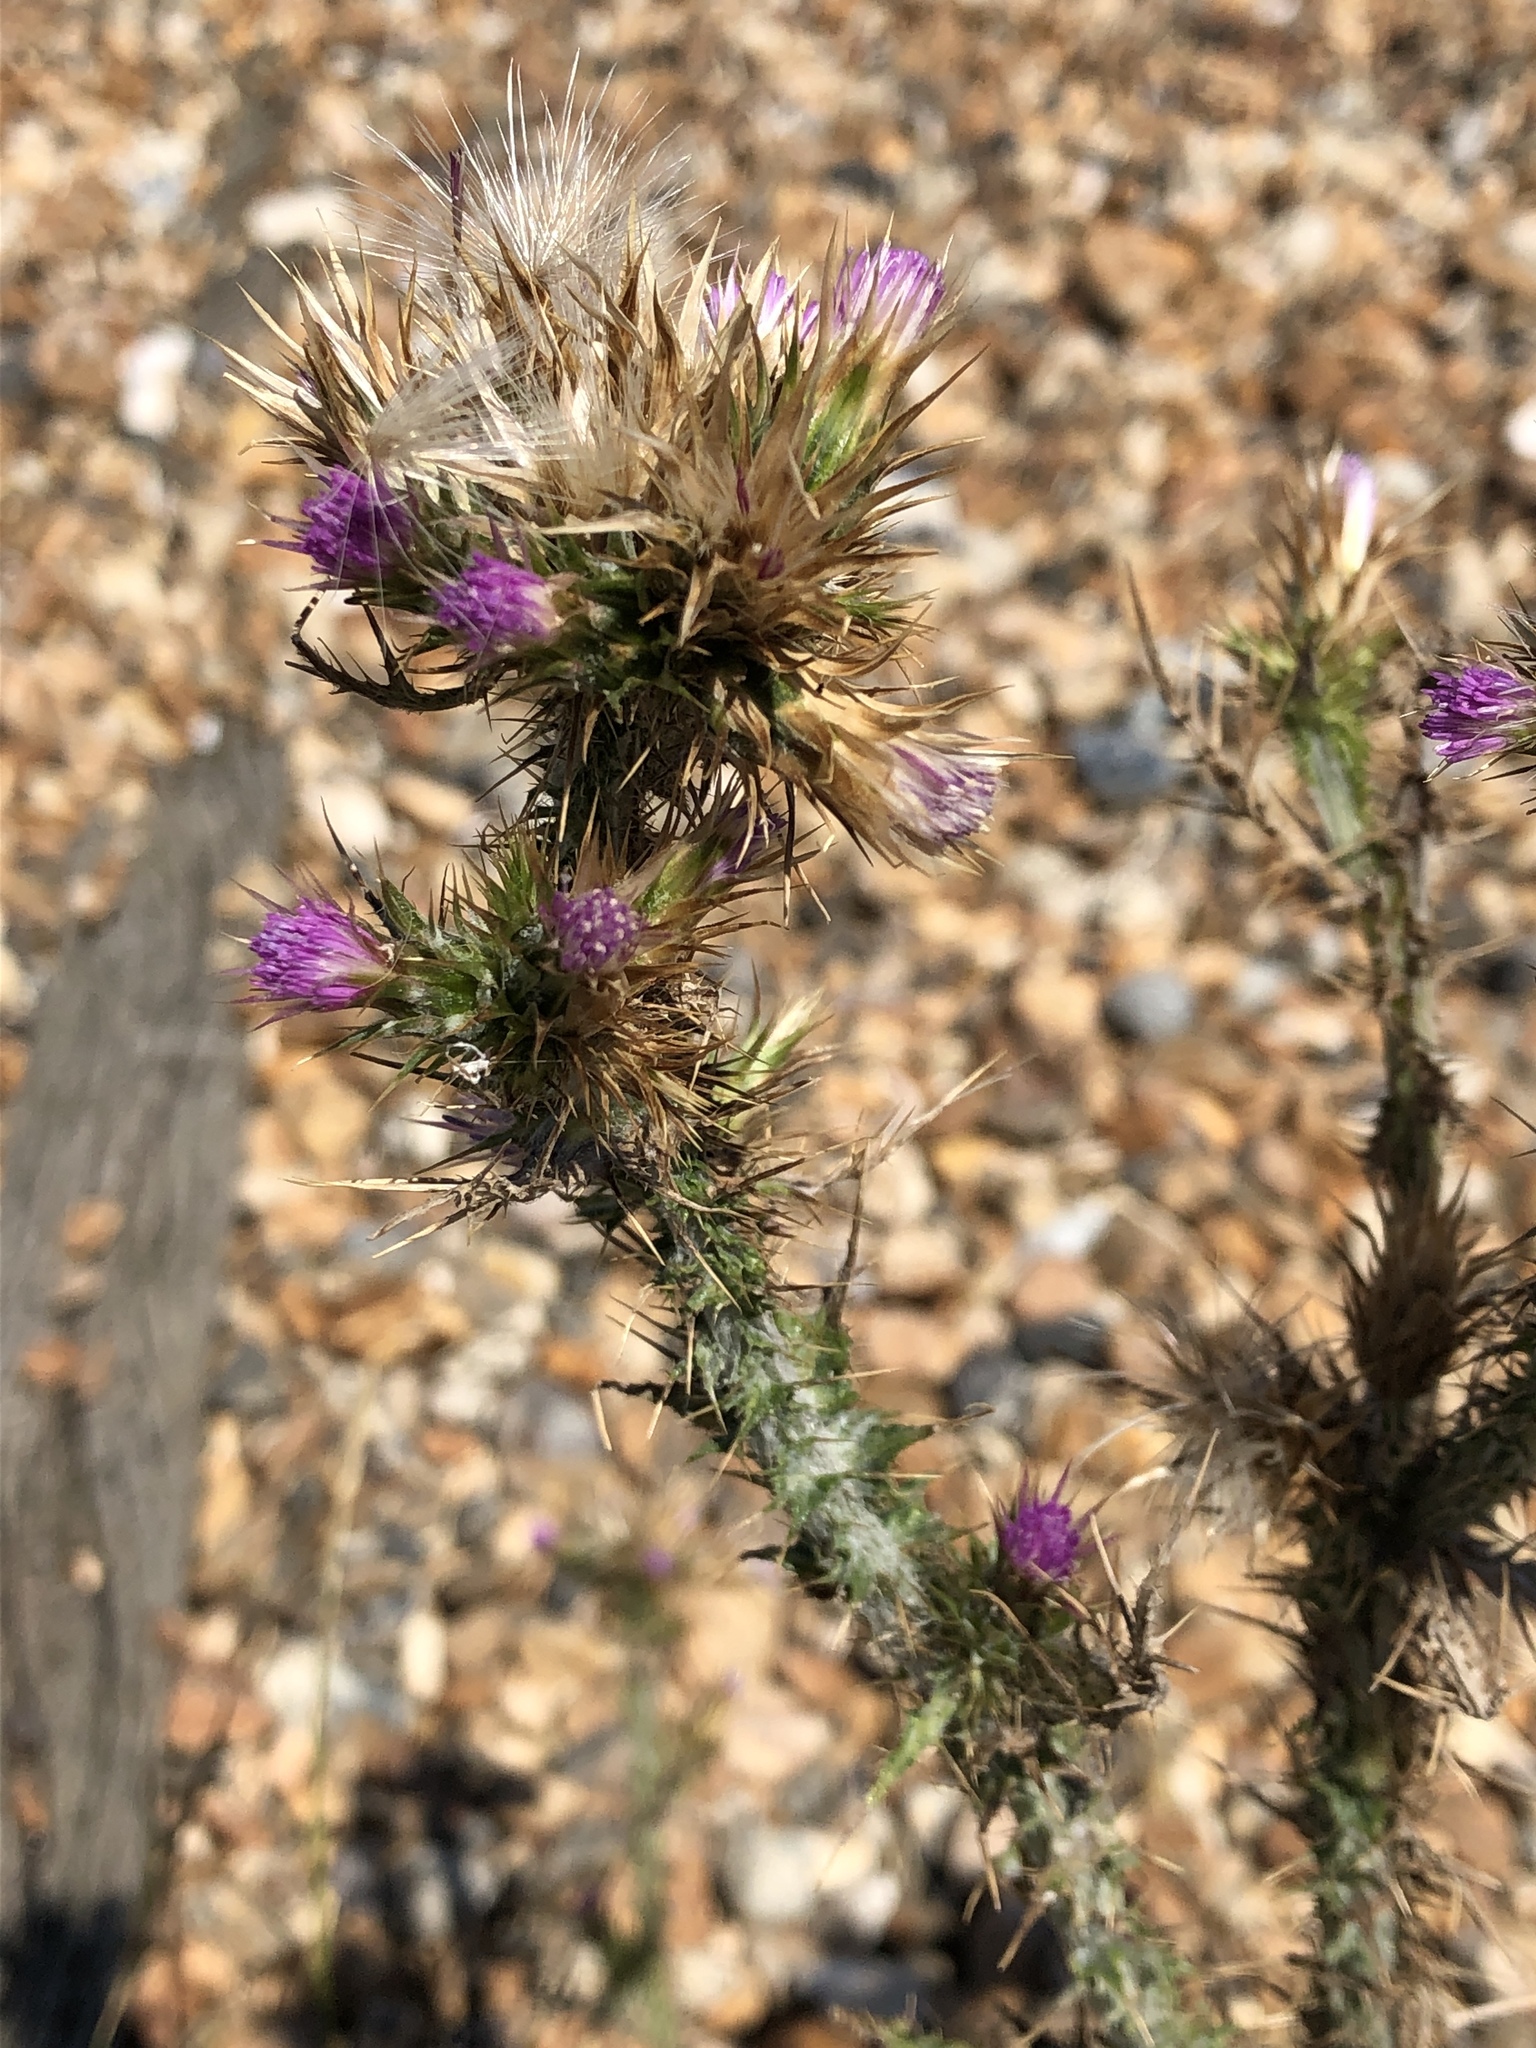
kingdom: Plantae
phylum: Tracheophyta
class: Magnoliopsida
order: Asterales
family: Asteraceae
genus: Carduus
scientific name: Carduus tenuiflorus
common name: Slender thistle
